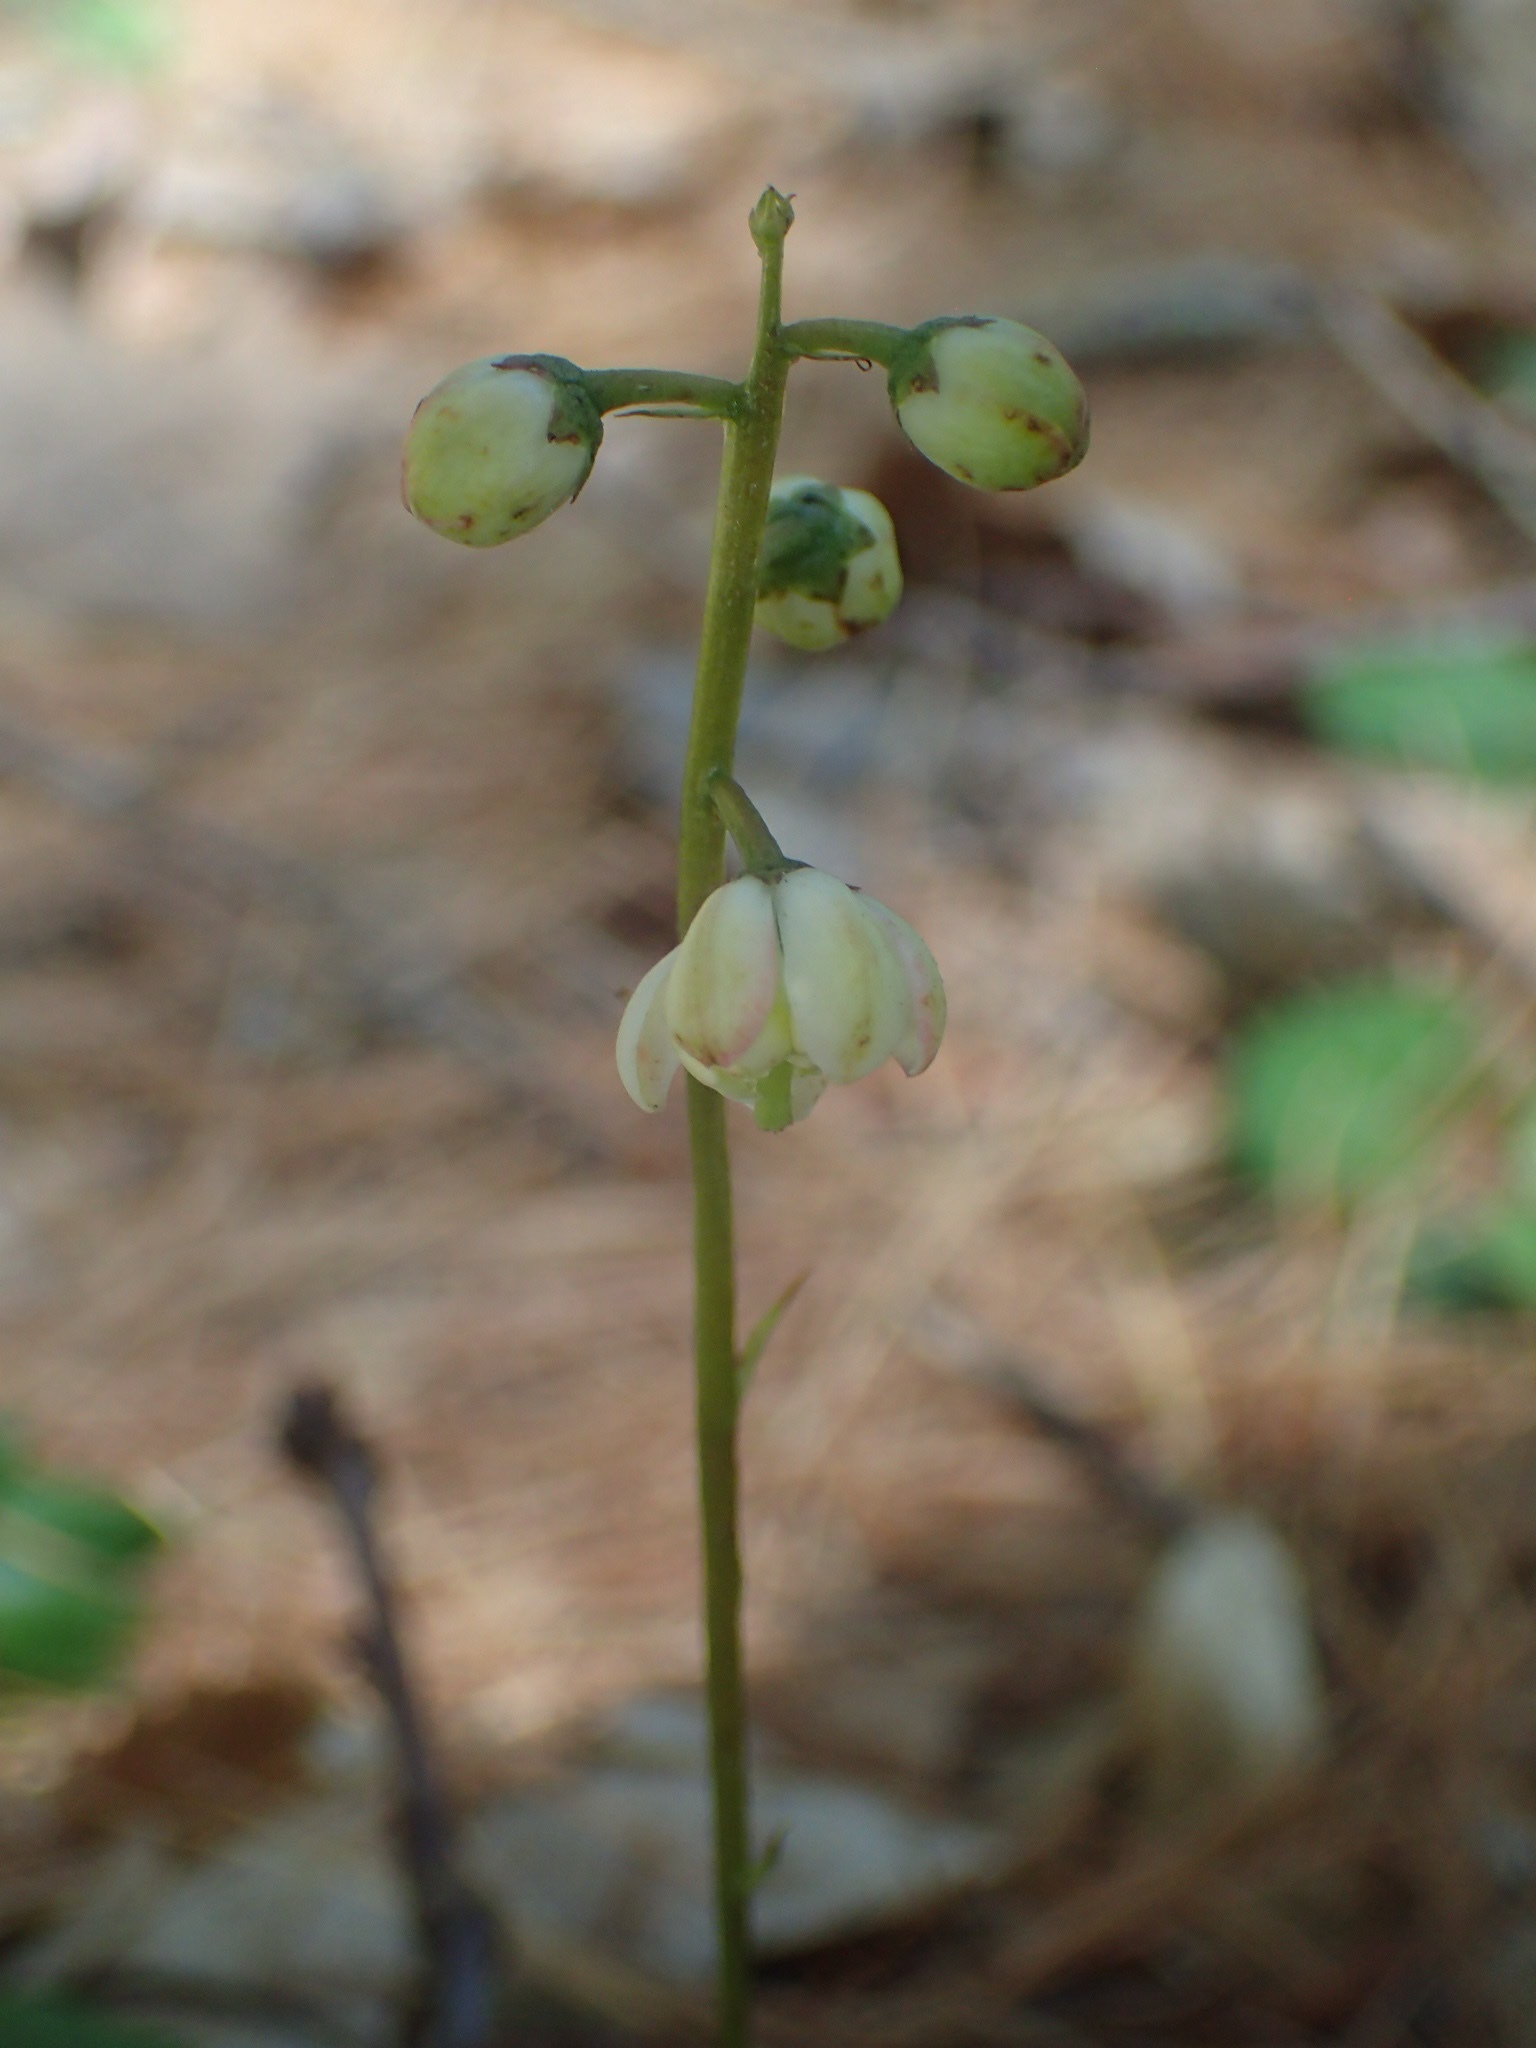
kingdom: Plantae
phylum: Tracheophyta
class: Magnoliopsida
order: Ericales
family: Ericaceae
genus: Pyrola
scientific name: Pyrola elliptica
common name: Shinleaf
